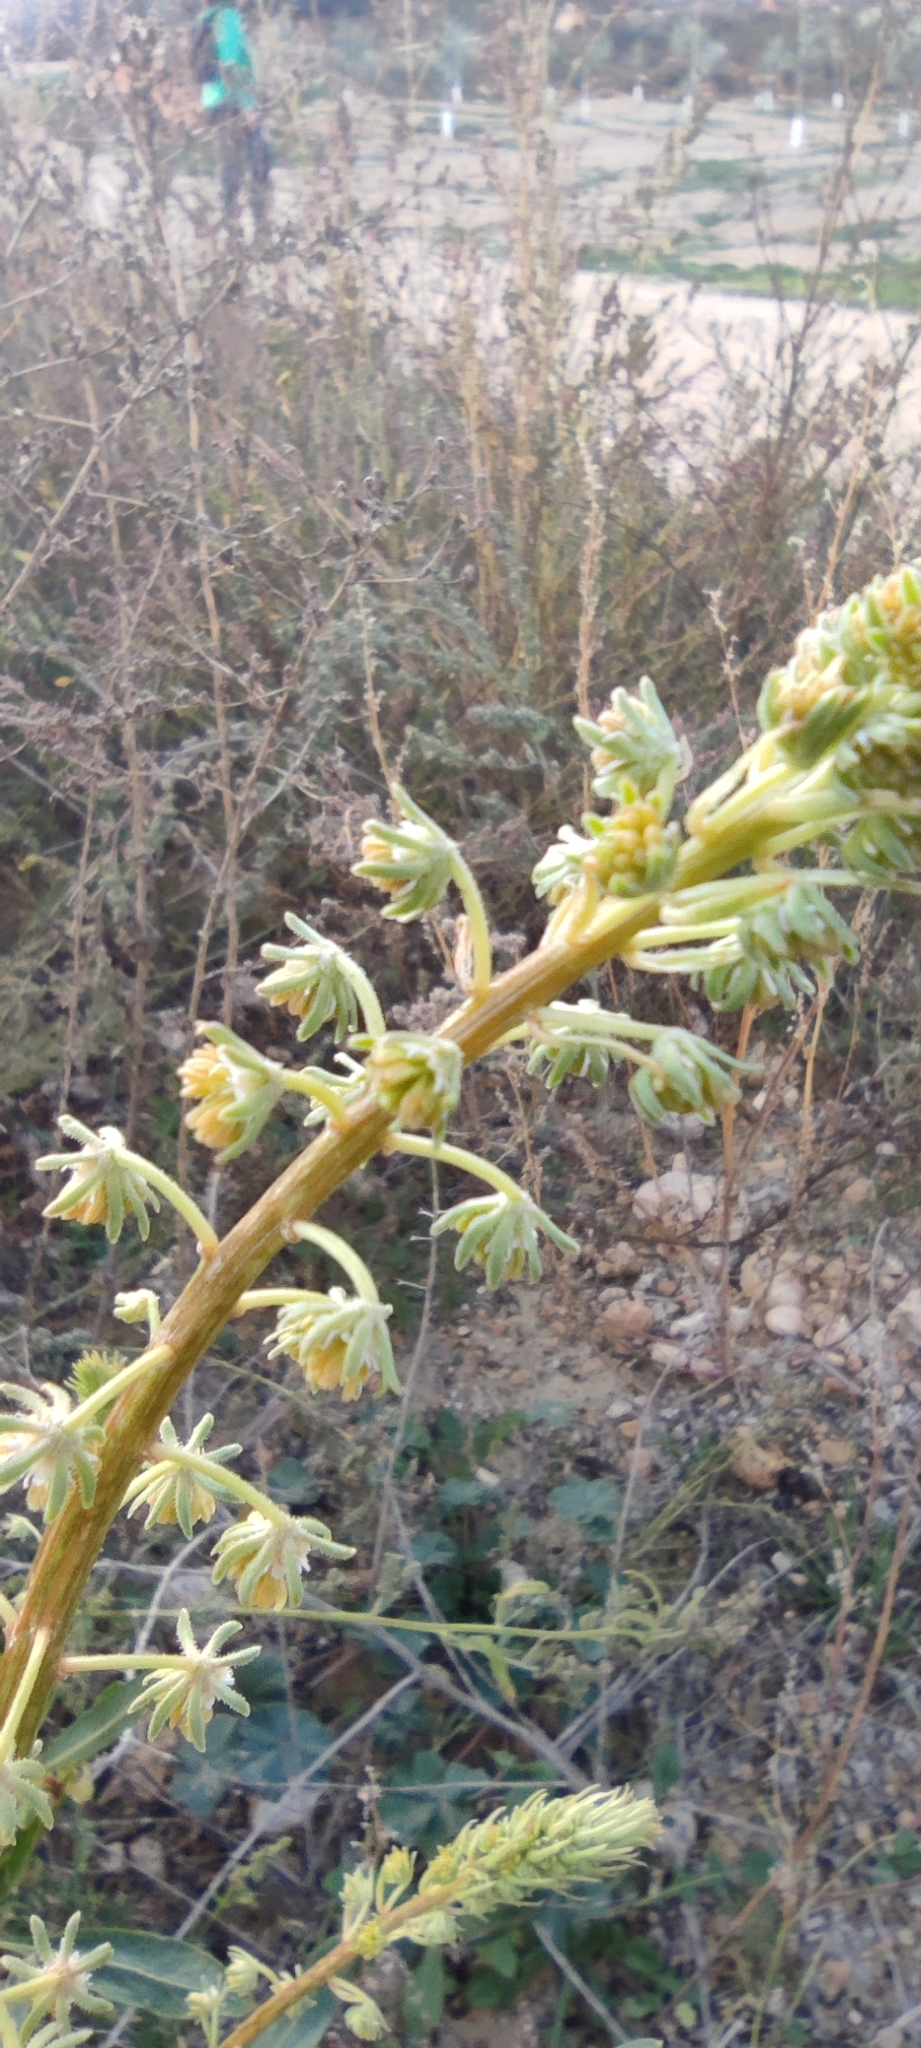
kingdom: Plantae
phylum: Tracheophyta
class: Magnoliopsida
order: Brassicales
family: Resedaceae
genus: Reseda
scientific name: Reseda lanceolata
